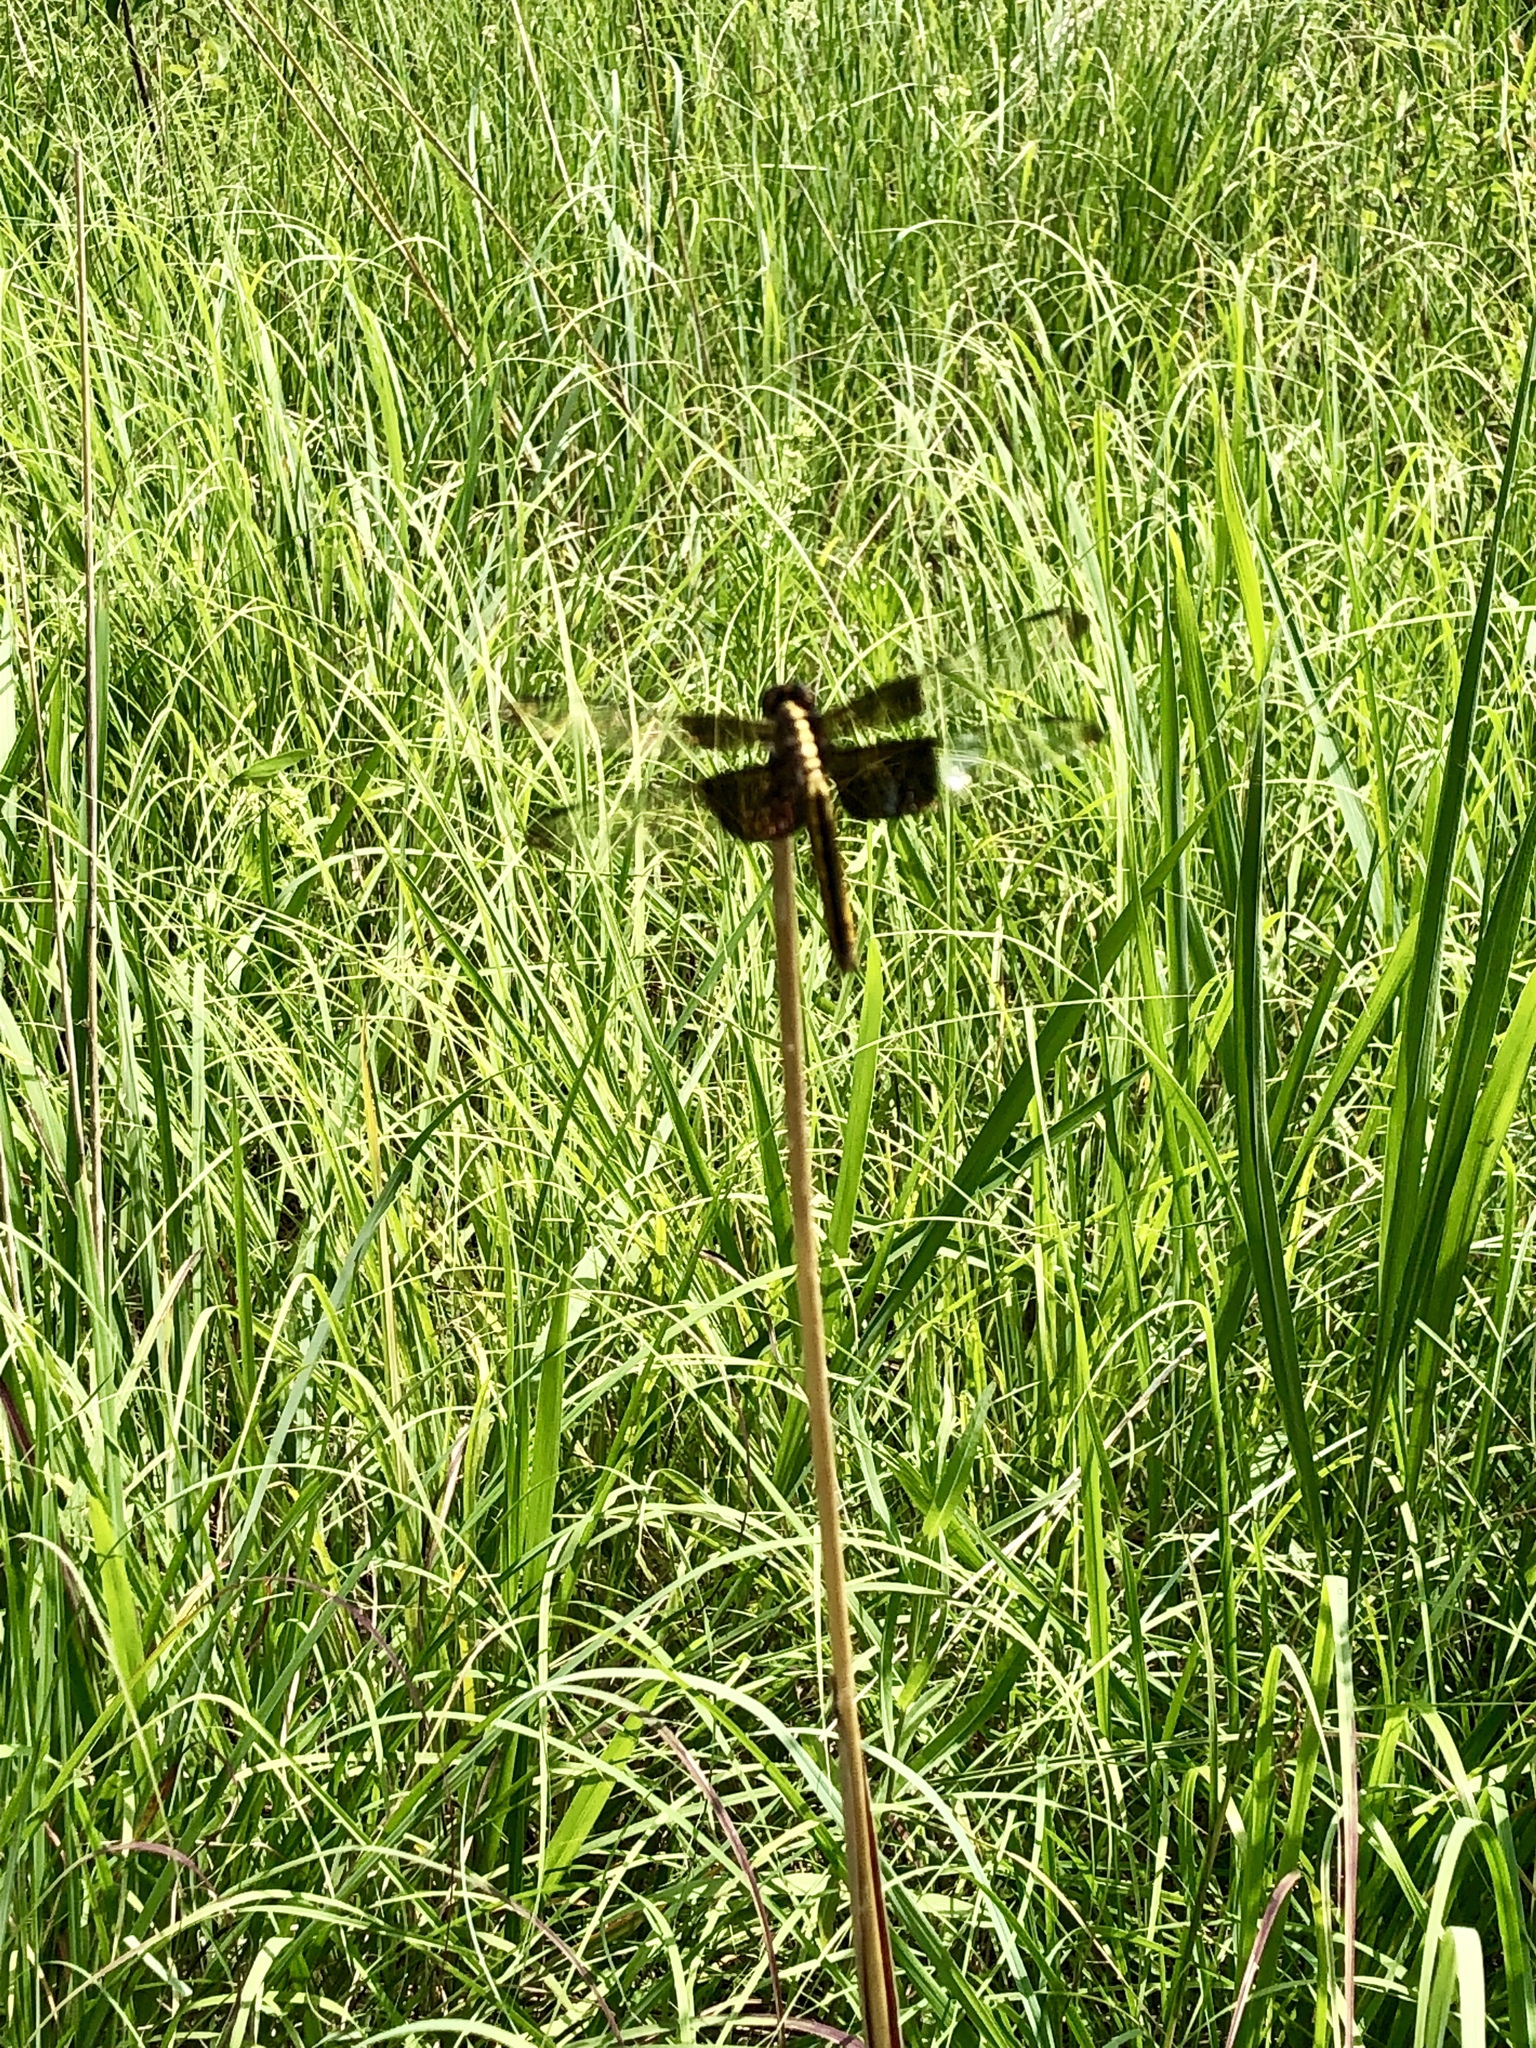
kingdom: Animalia
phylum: Arthropoda
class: Insecta
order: Odonata
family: Libellulidae
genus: Libellula
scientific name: Libellula luctuosa
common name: Widow skimmer
